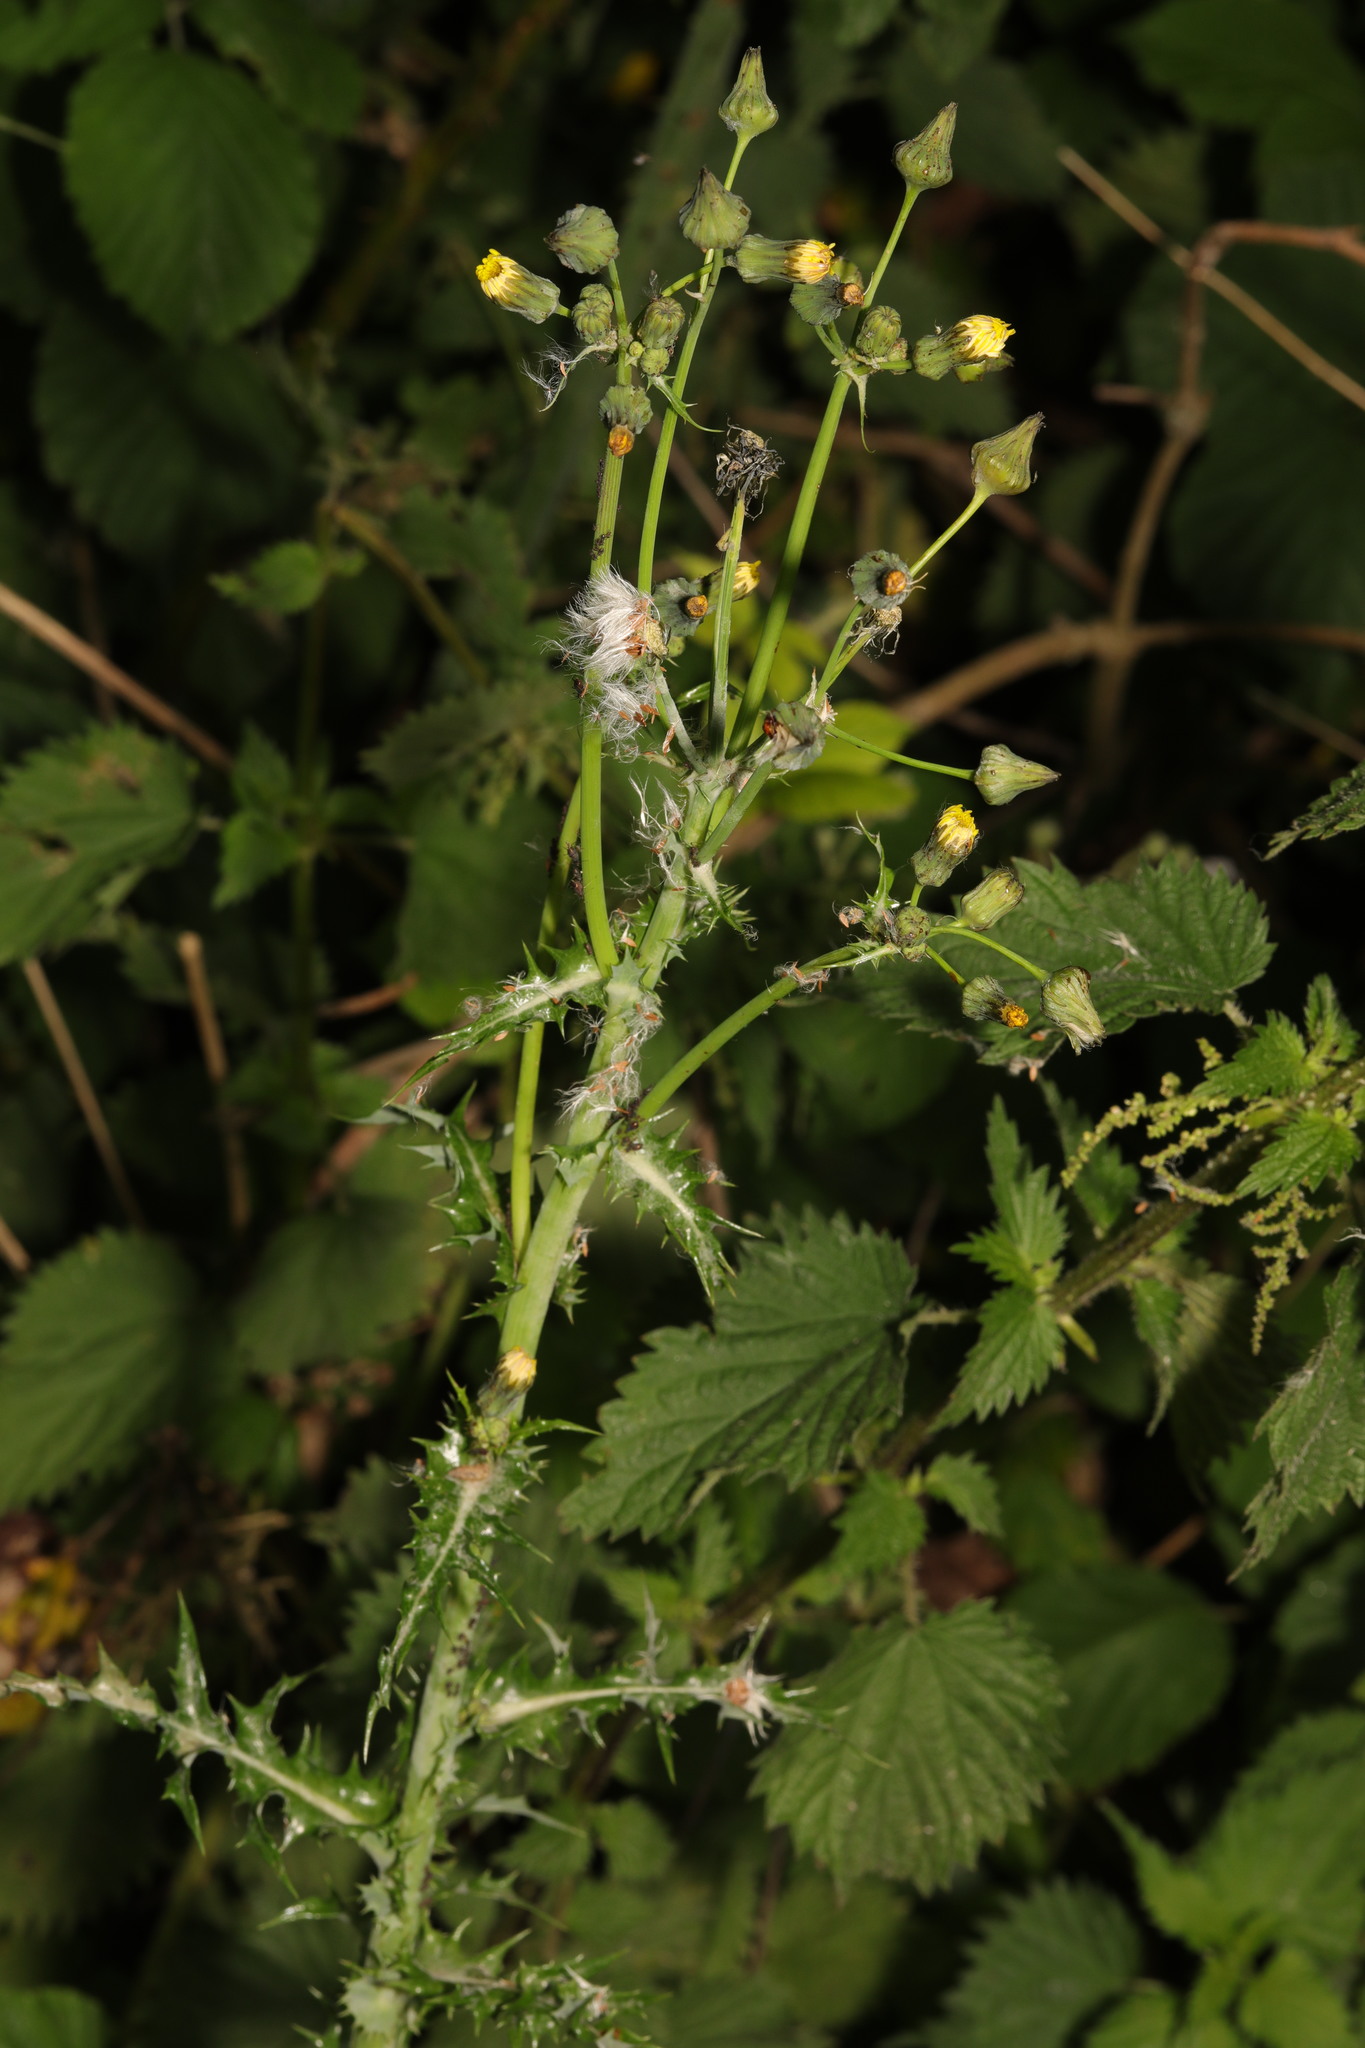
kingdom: Plantae
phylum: Tracheophyta
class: Magnoliopsida
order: Asterales
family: Asteraceae
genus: Sonchus
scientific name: Sonchus asper
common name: Prickly sow-thistle
